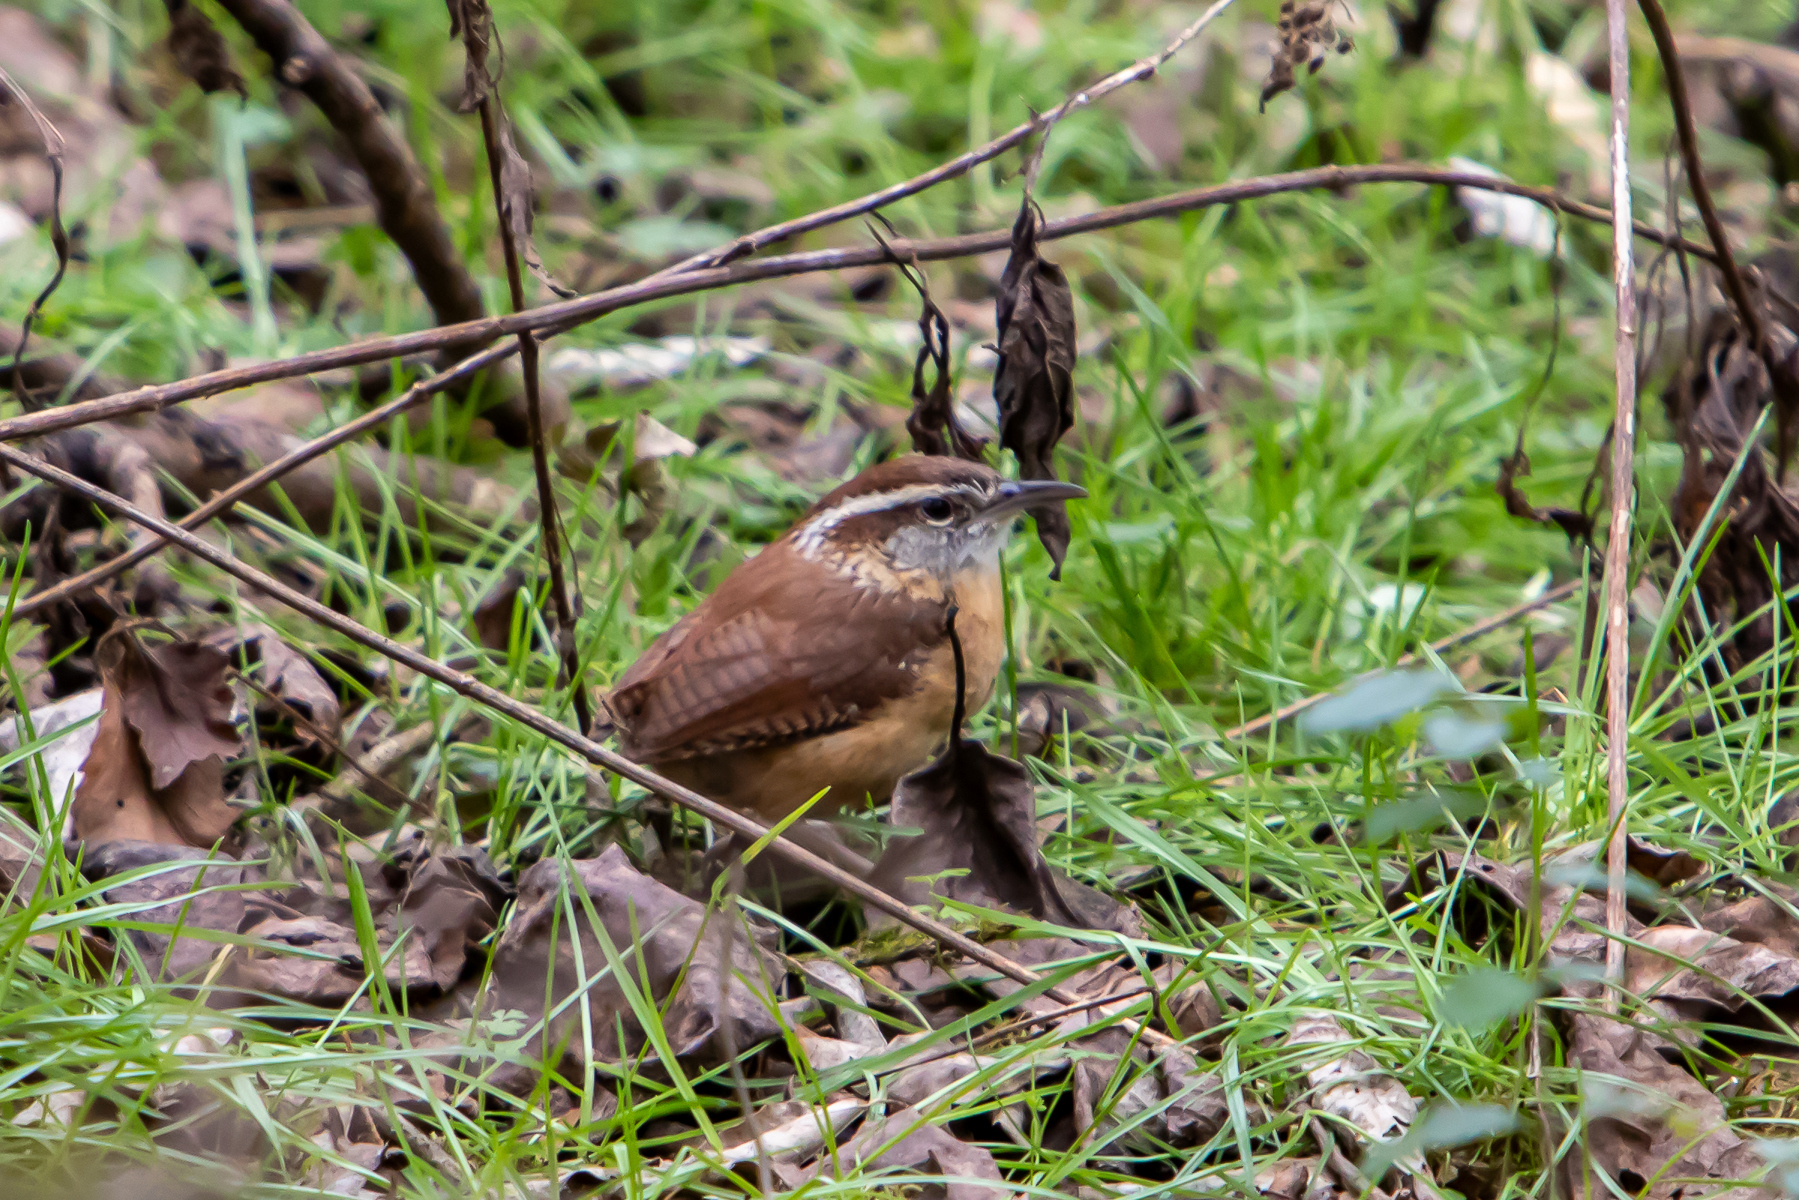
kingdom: Animalia
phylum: Chordata
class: Aves
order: Passeriformes
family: Troglodytidae
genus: Thryothorus
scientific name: Thryothorus ludovicianus
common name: Carolina wren
